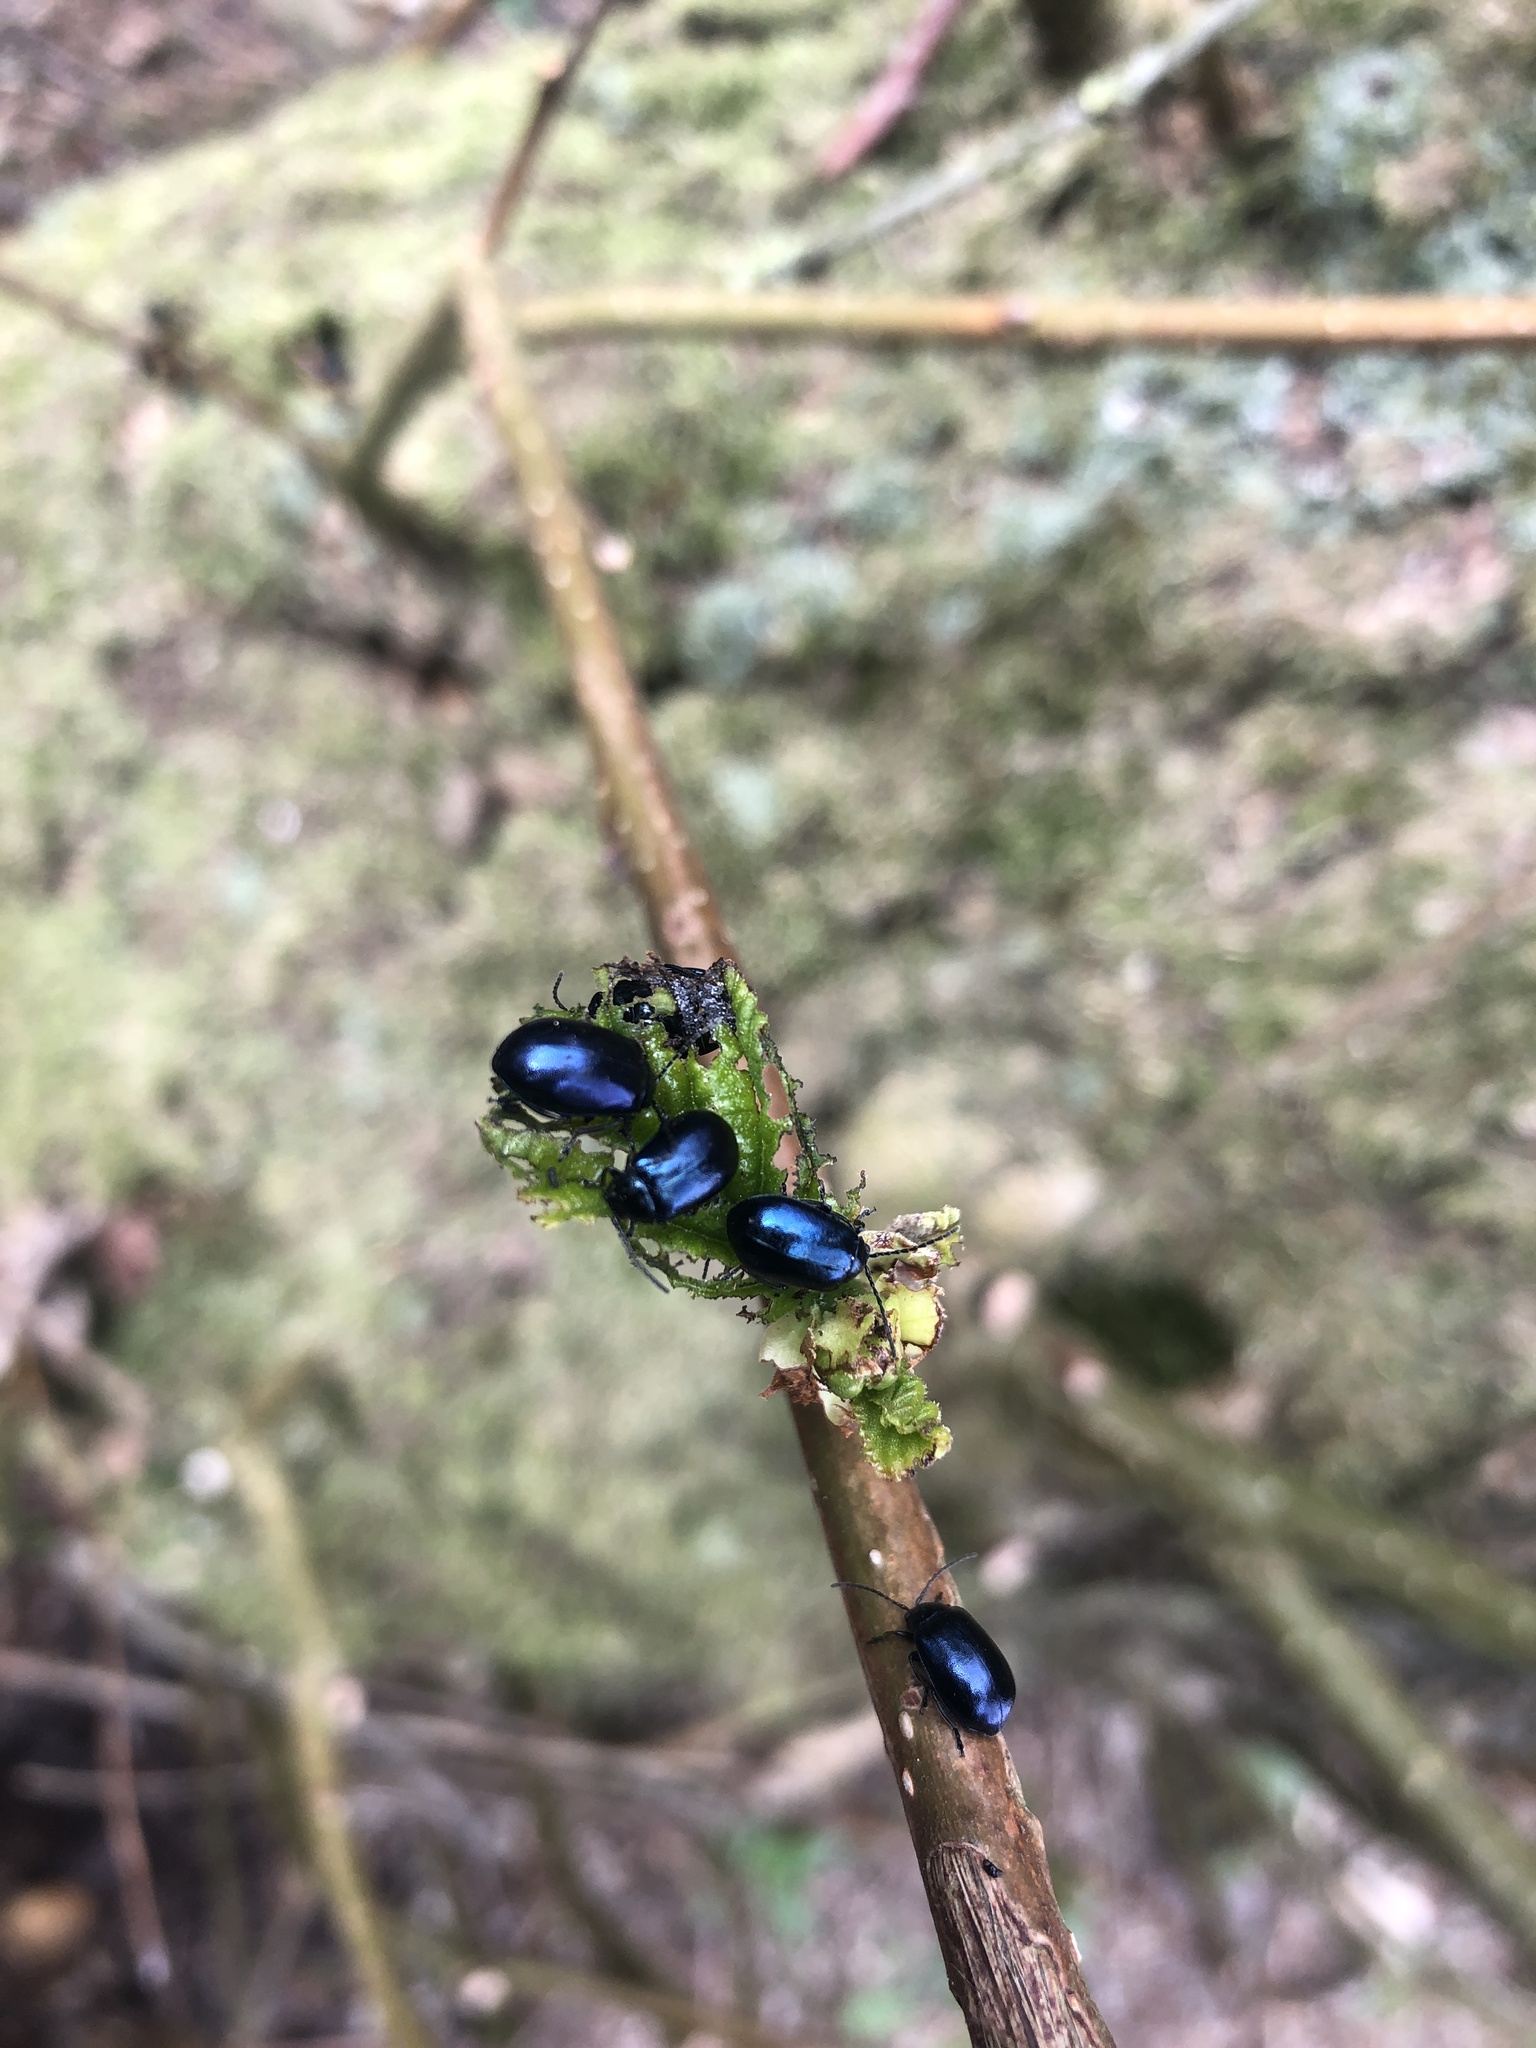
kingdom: Animalia
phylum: Arthropoda
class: Insecta
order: Coleoptera
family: Chrysomelidae
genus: Agelastica
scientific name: Agelastica alni
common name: Alder leaf beetle
